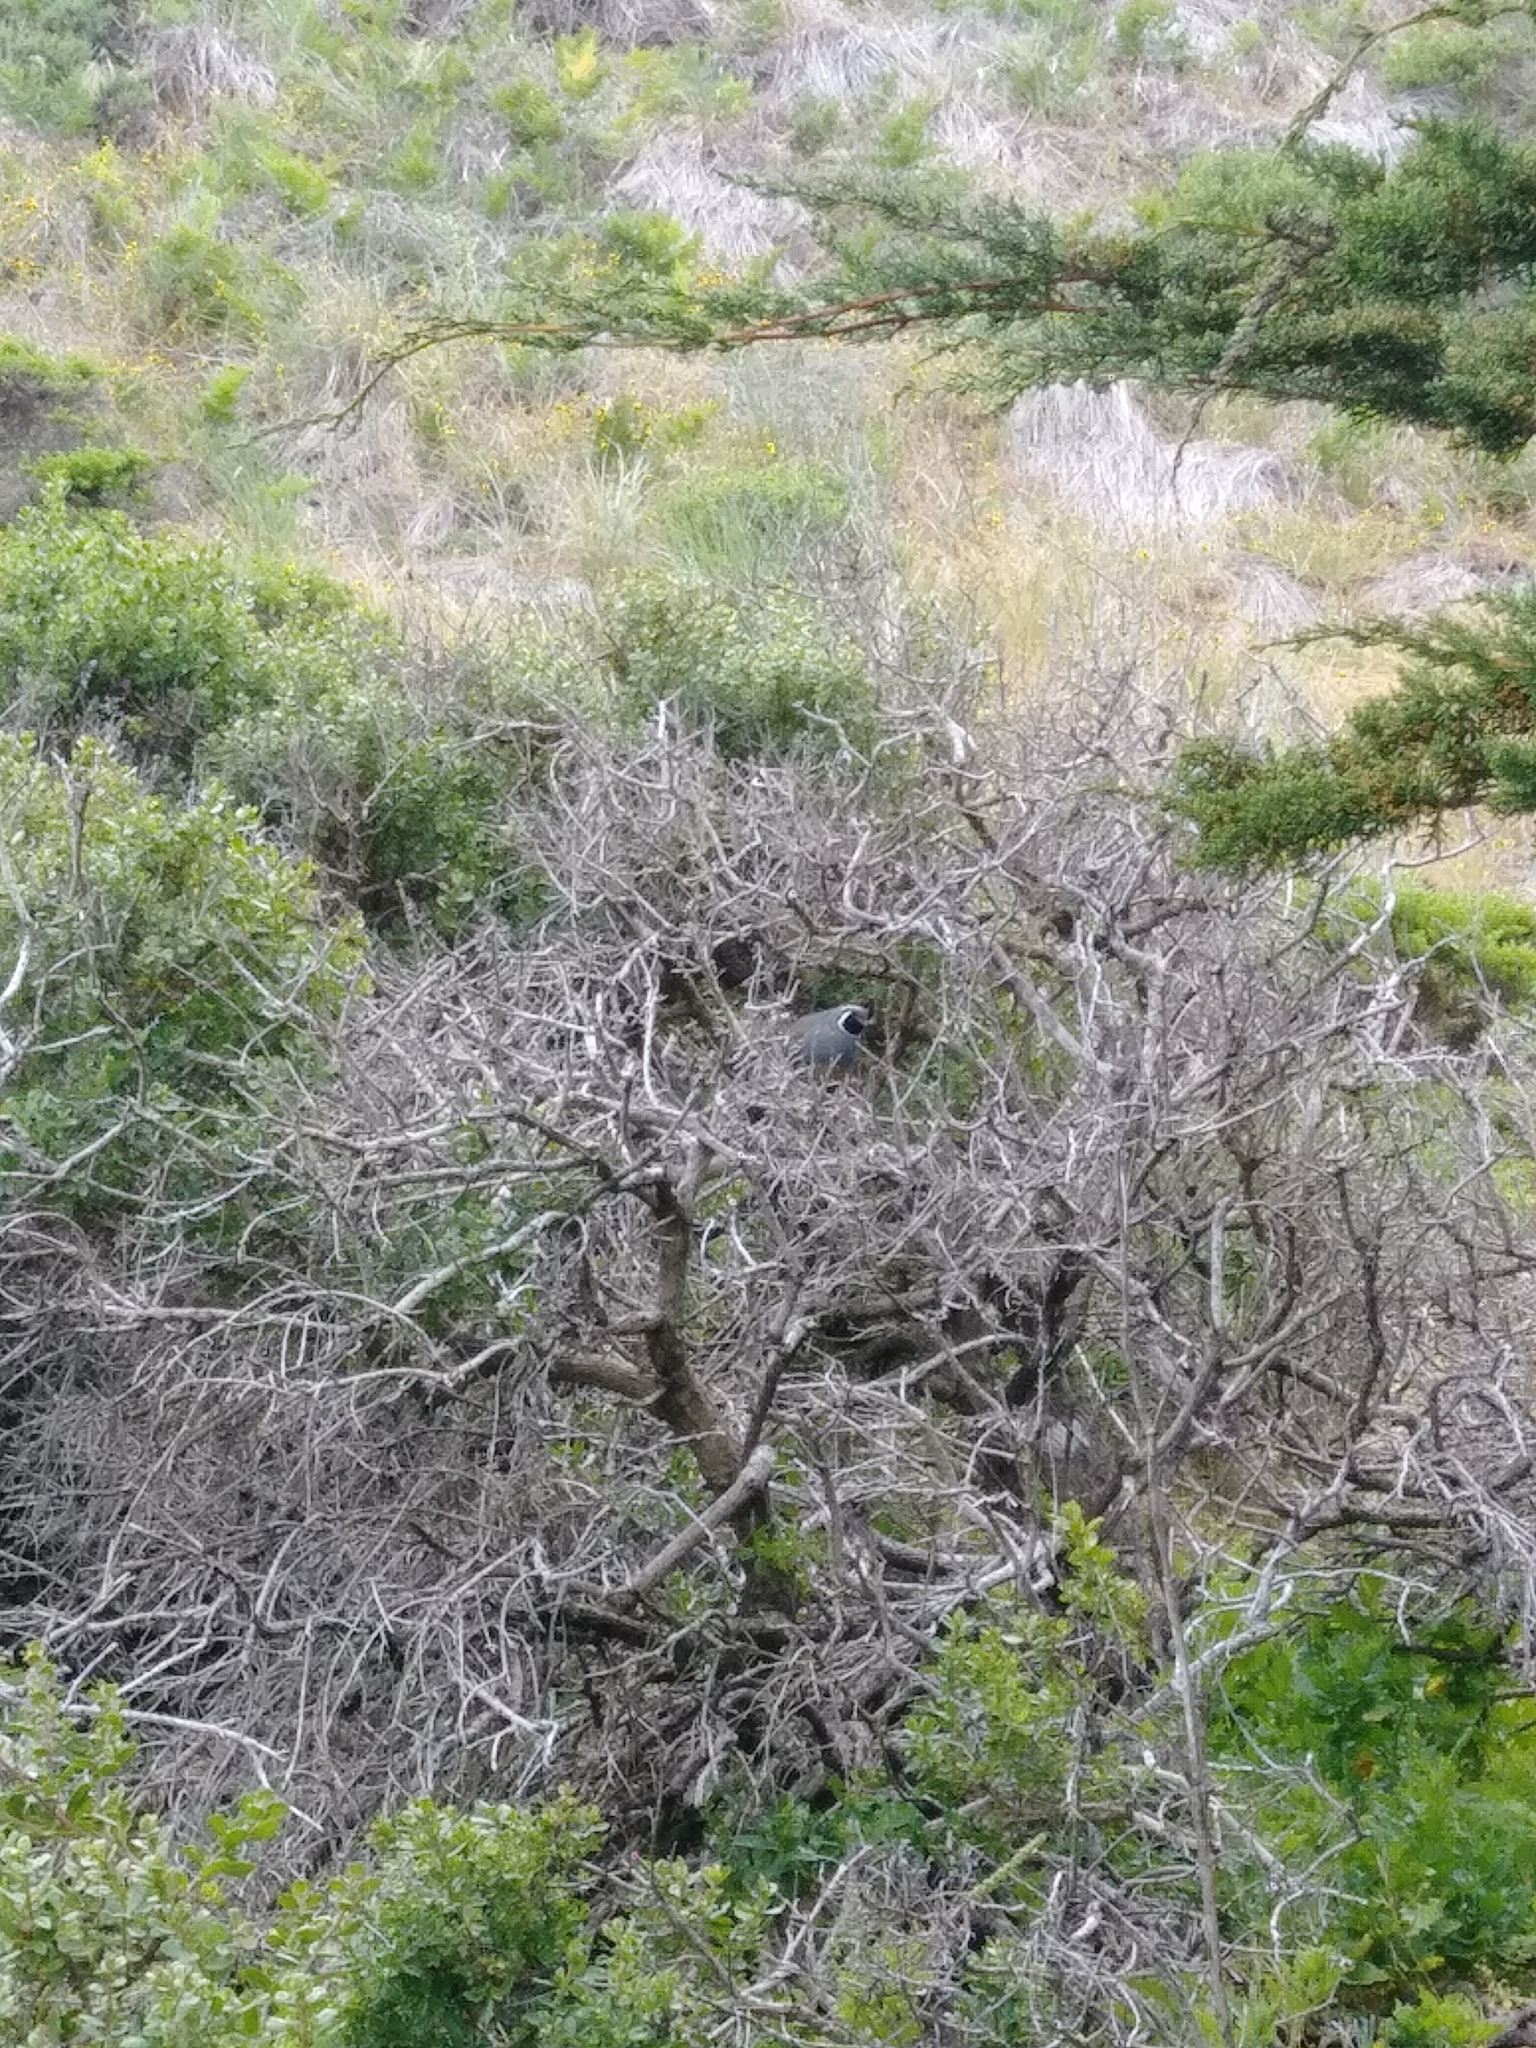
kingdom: Animalia
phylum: Chordata
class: Aves
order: Galliformes
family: Odontophoridae
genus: Callipepla
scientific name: Callipepla californica
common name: California quail
